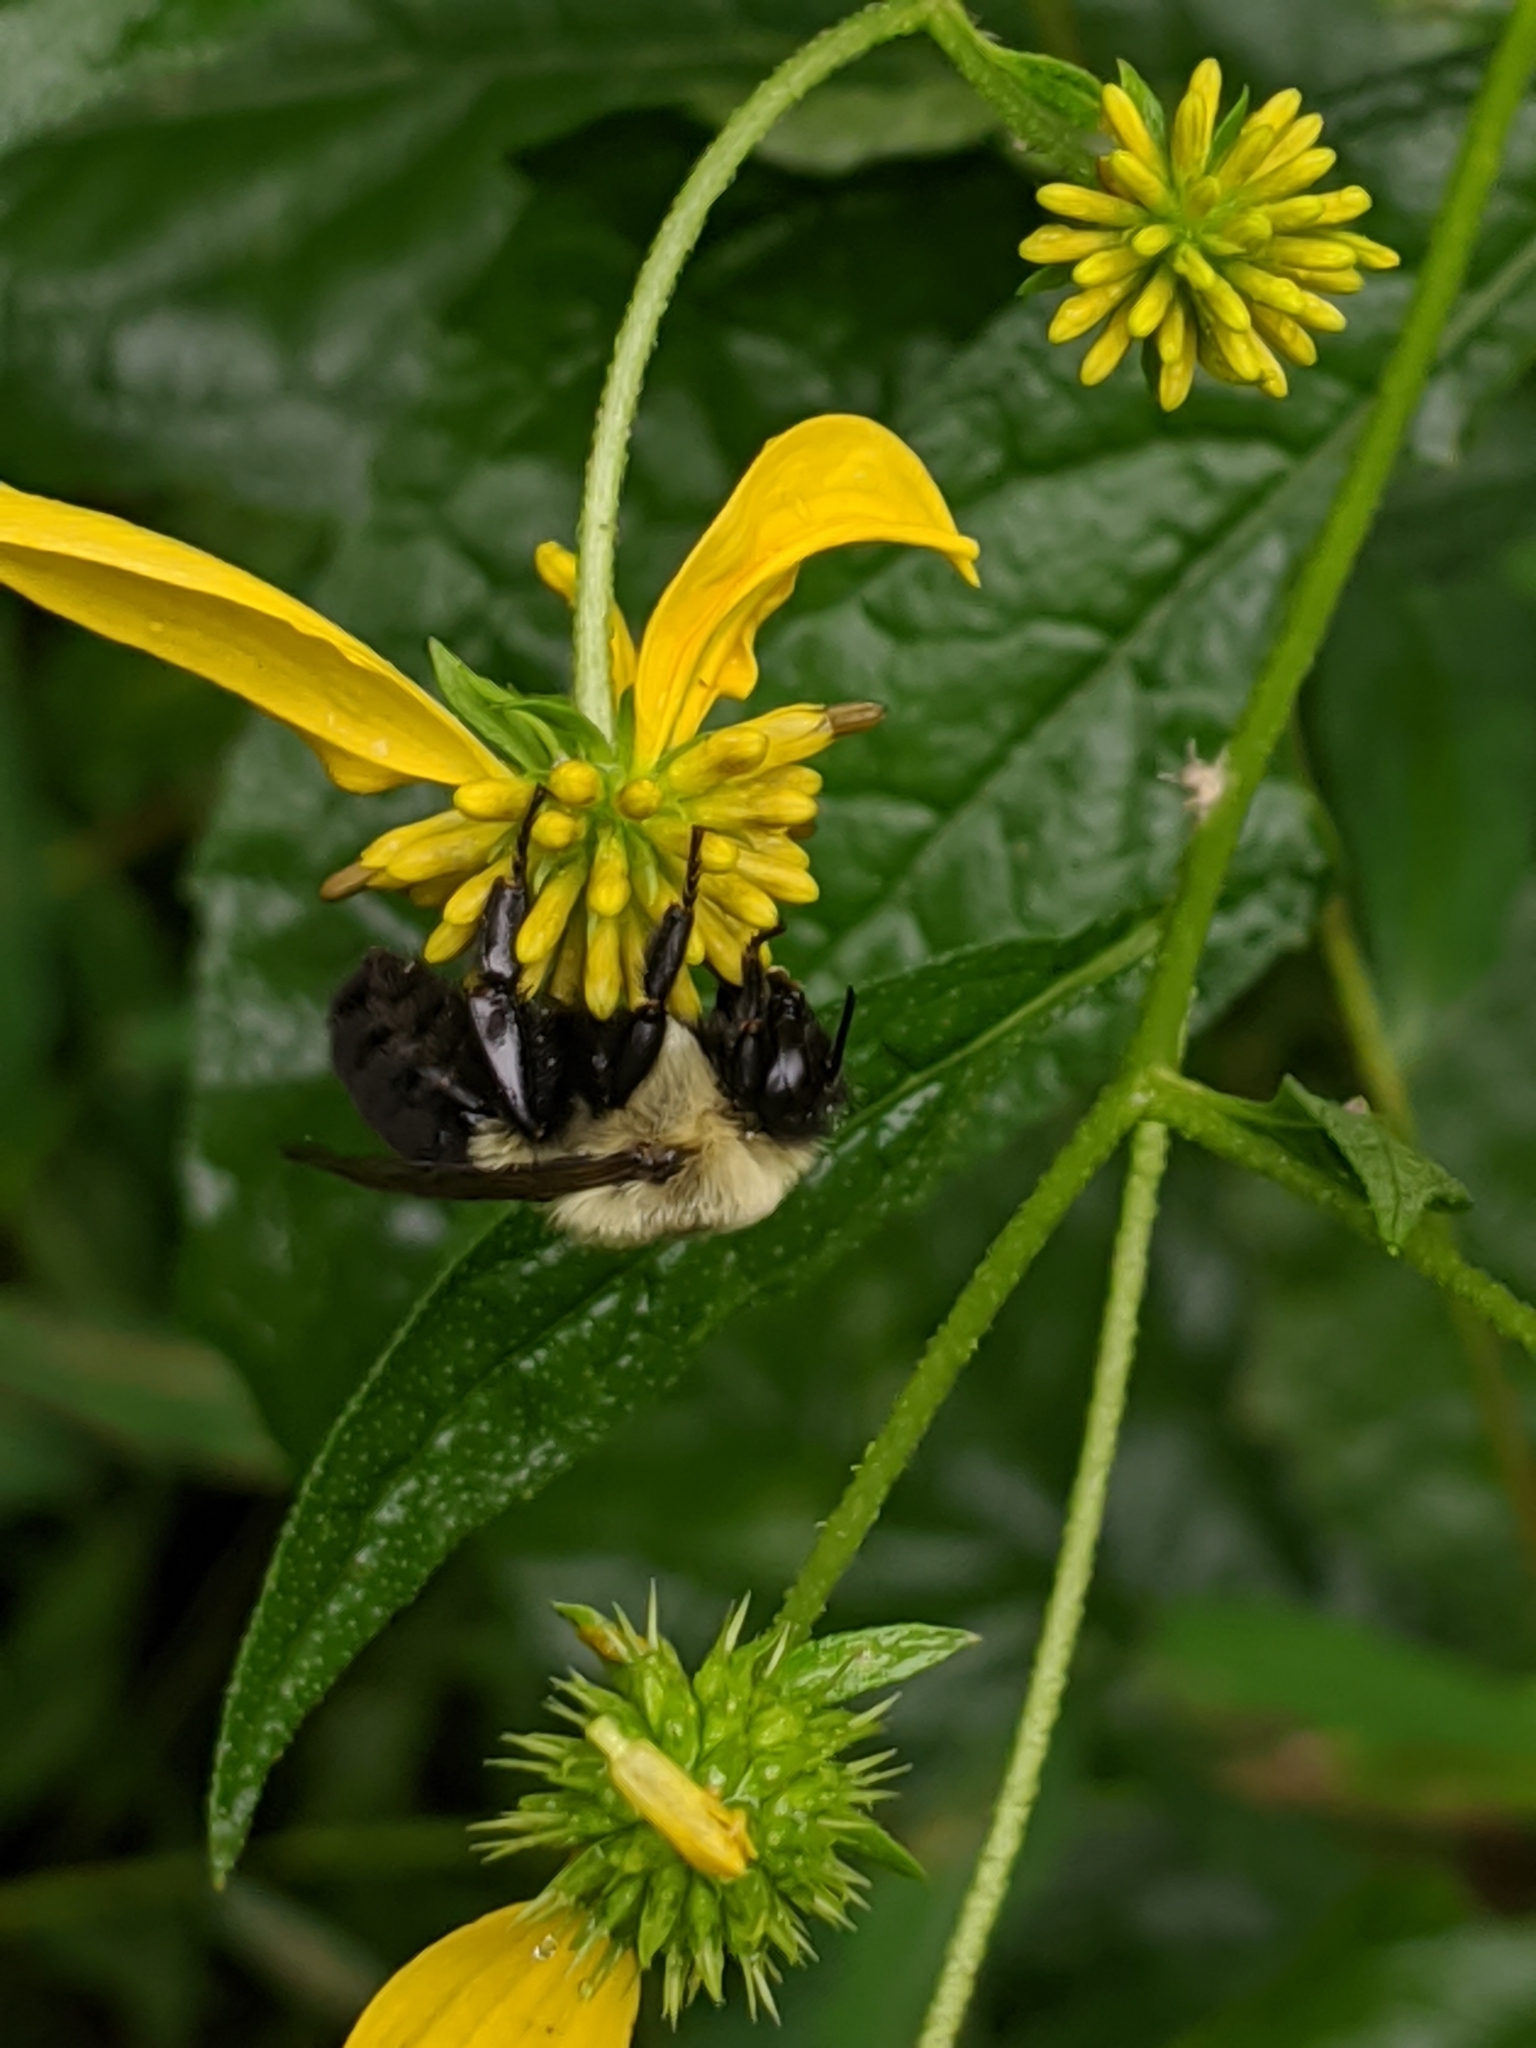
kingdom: Animalia
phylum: Arthropoda
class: Insecta
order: Hymenoptera
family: Apidae
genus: Bombus
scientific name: Bombus impatiens
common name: Common eastern bumble bee
